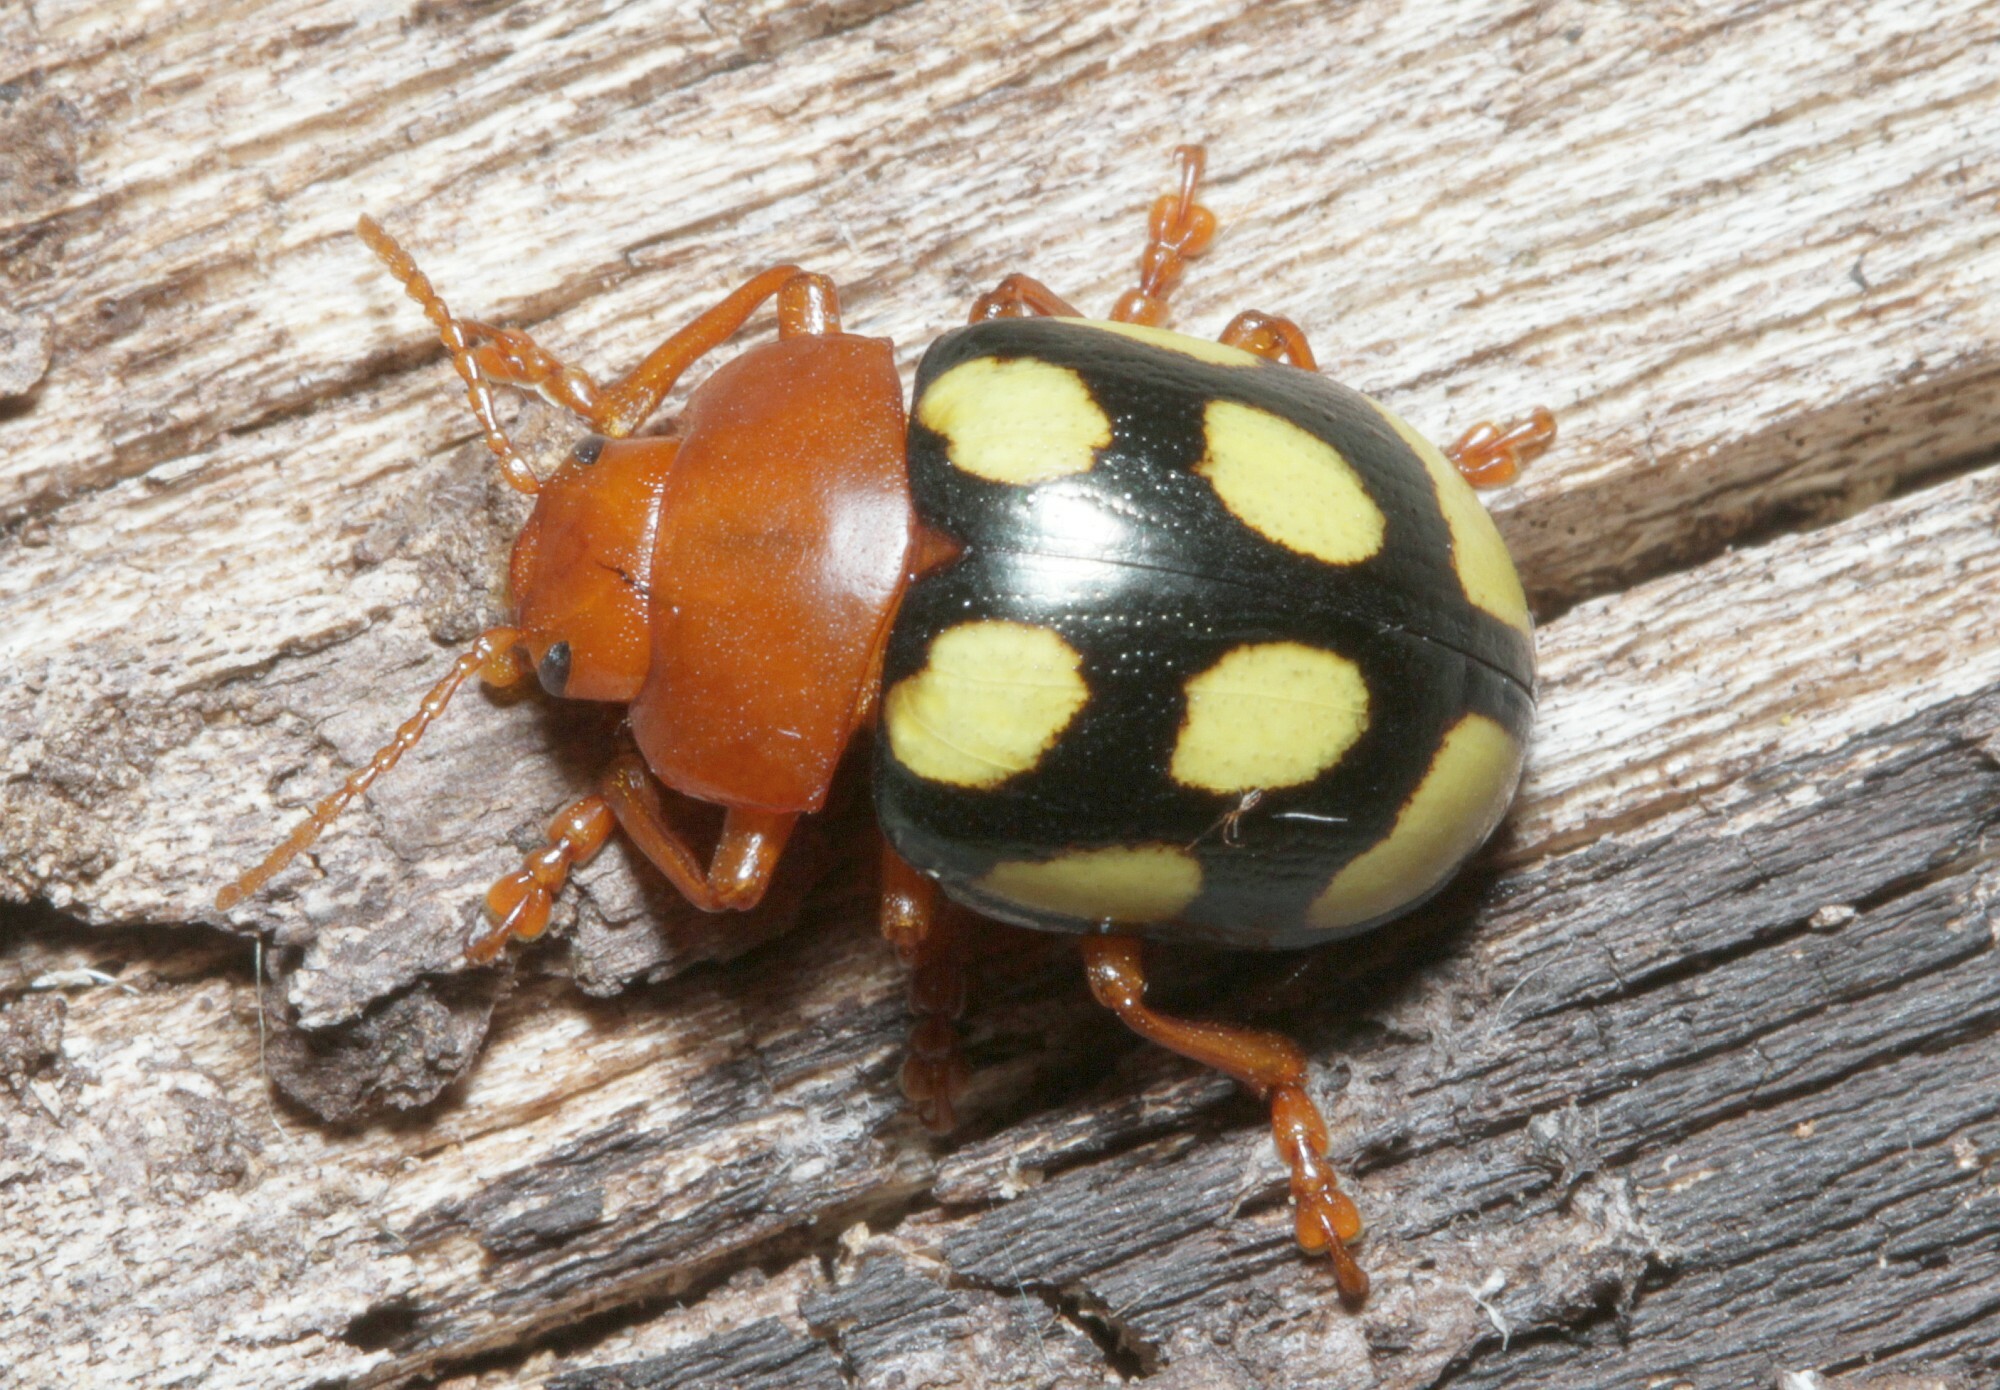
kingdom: Animalia
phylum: Arthropoda
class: Insecta
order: Coleoptera
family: Chrysomelidae
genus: Platyphora
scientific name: Platyphora
